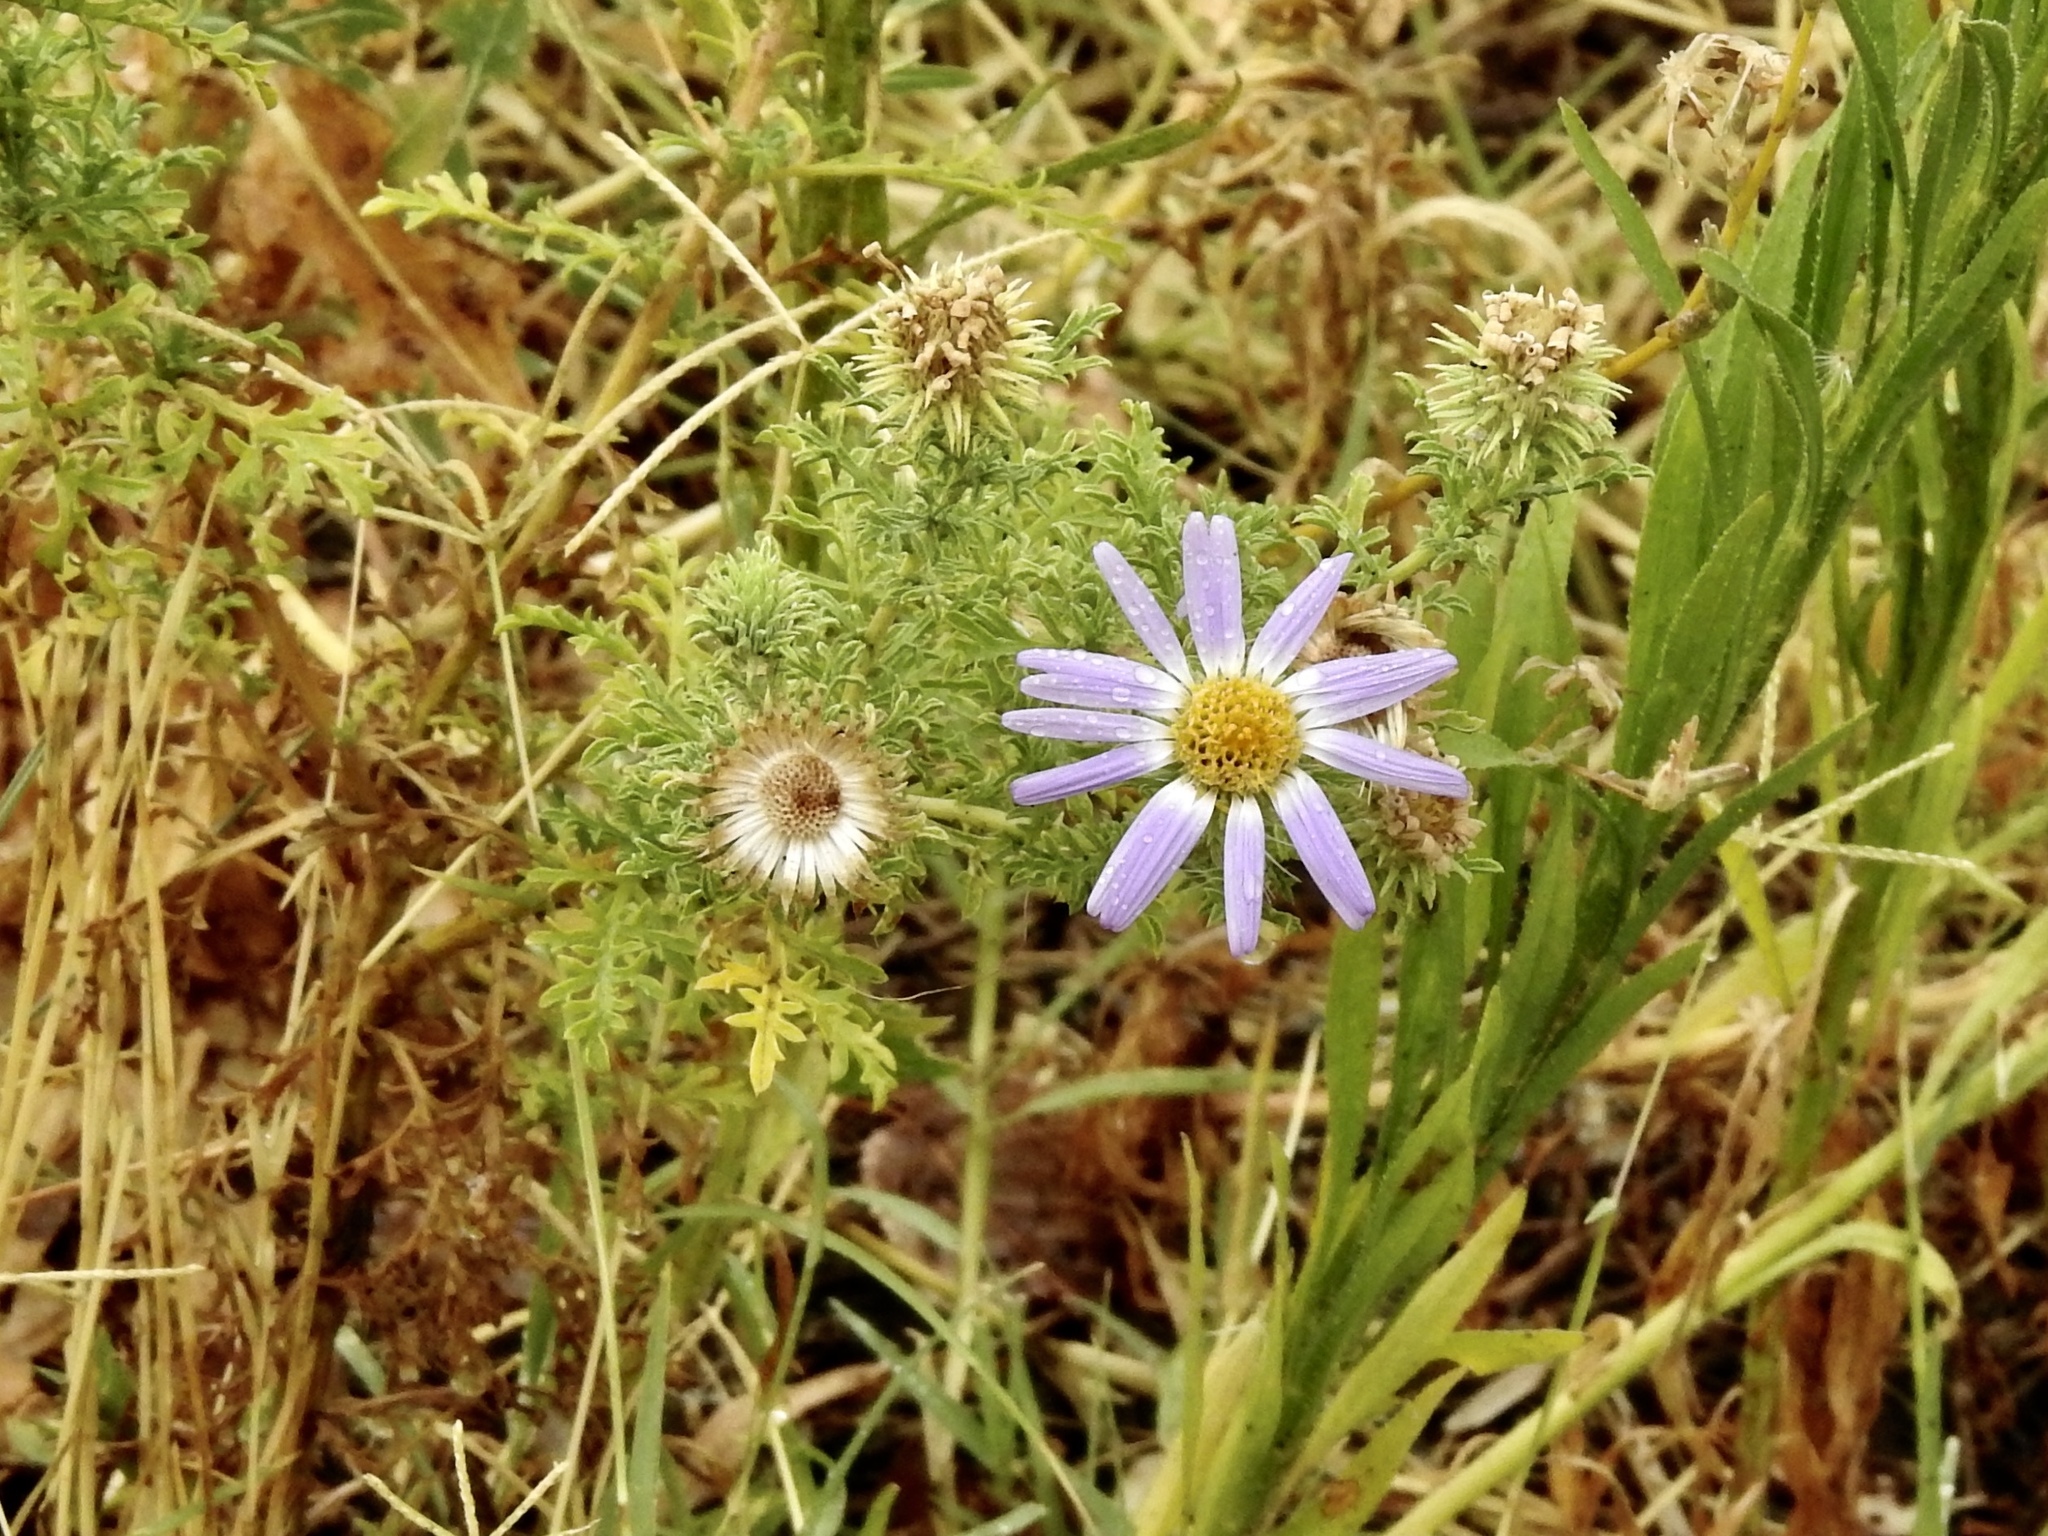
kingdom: Plantae
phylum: Tracheophyta
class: Magnoliopsida
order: Asterales
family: Asteraceae
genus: Machaeranthera
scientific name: Machaeranthera tanacetifolia
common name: Tansy-aster
